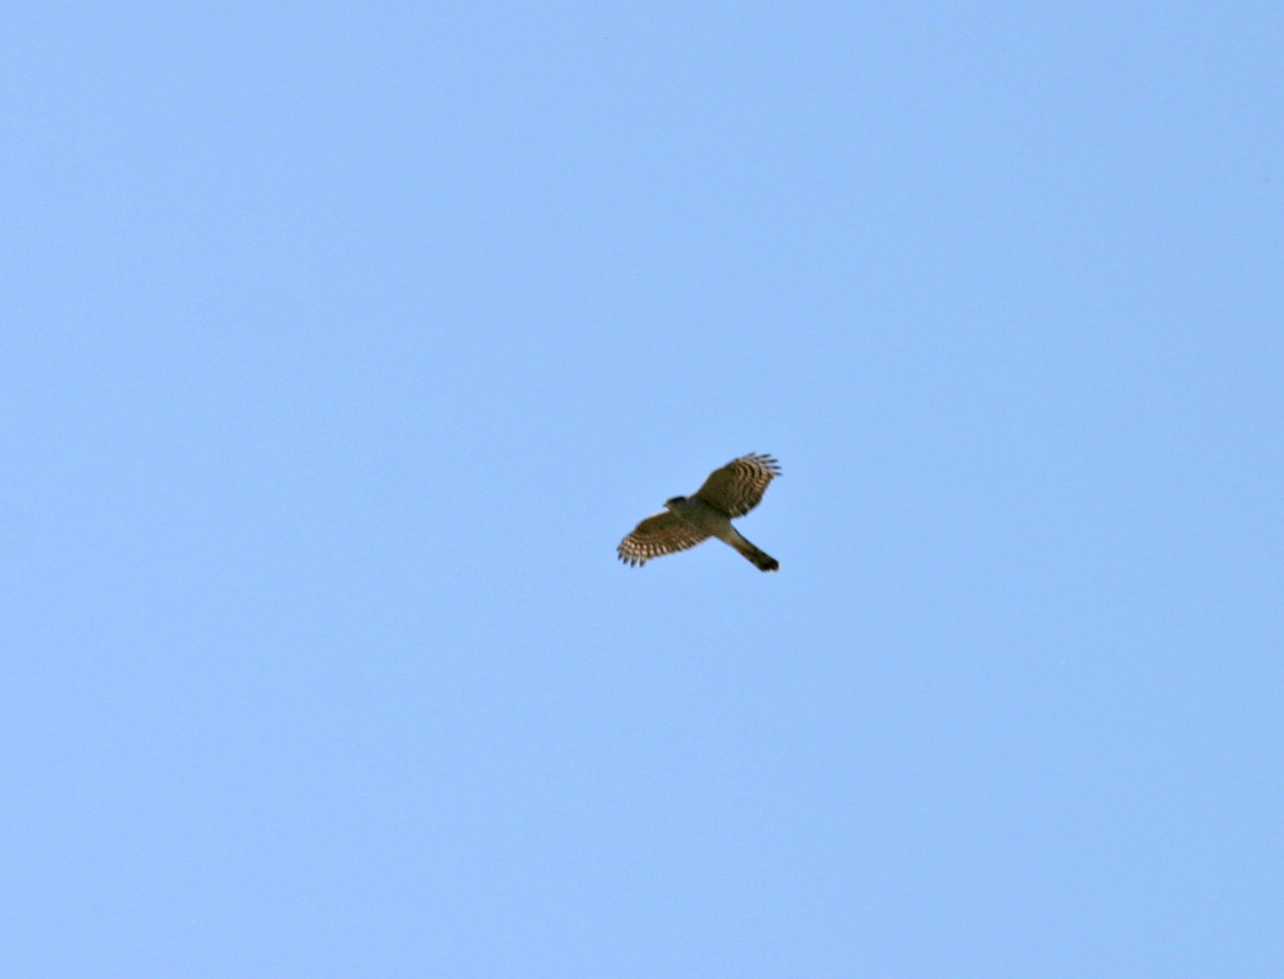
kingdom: Animalia
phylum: Chordata
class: Aves
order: Accipitriformes
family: Accipitridae
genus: Accipiter
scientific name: Accipiter nisus
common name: Eurasian sparrowhawk
